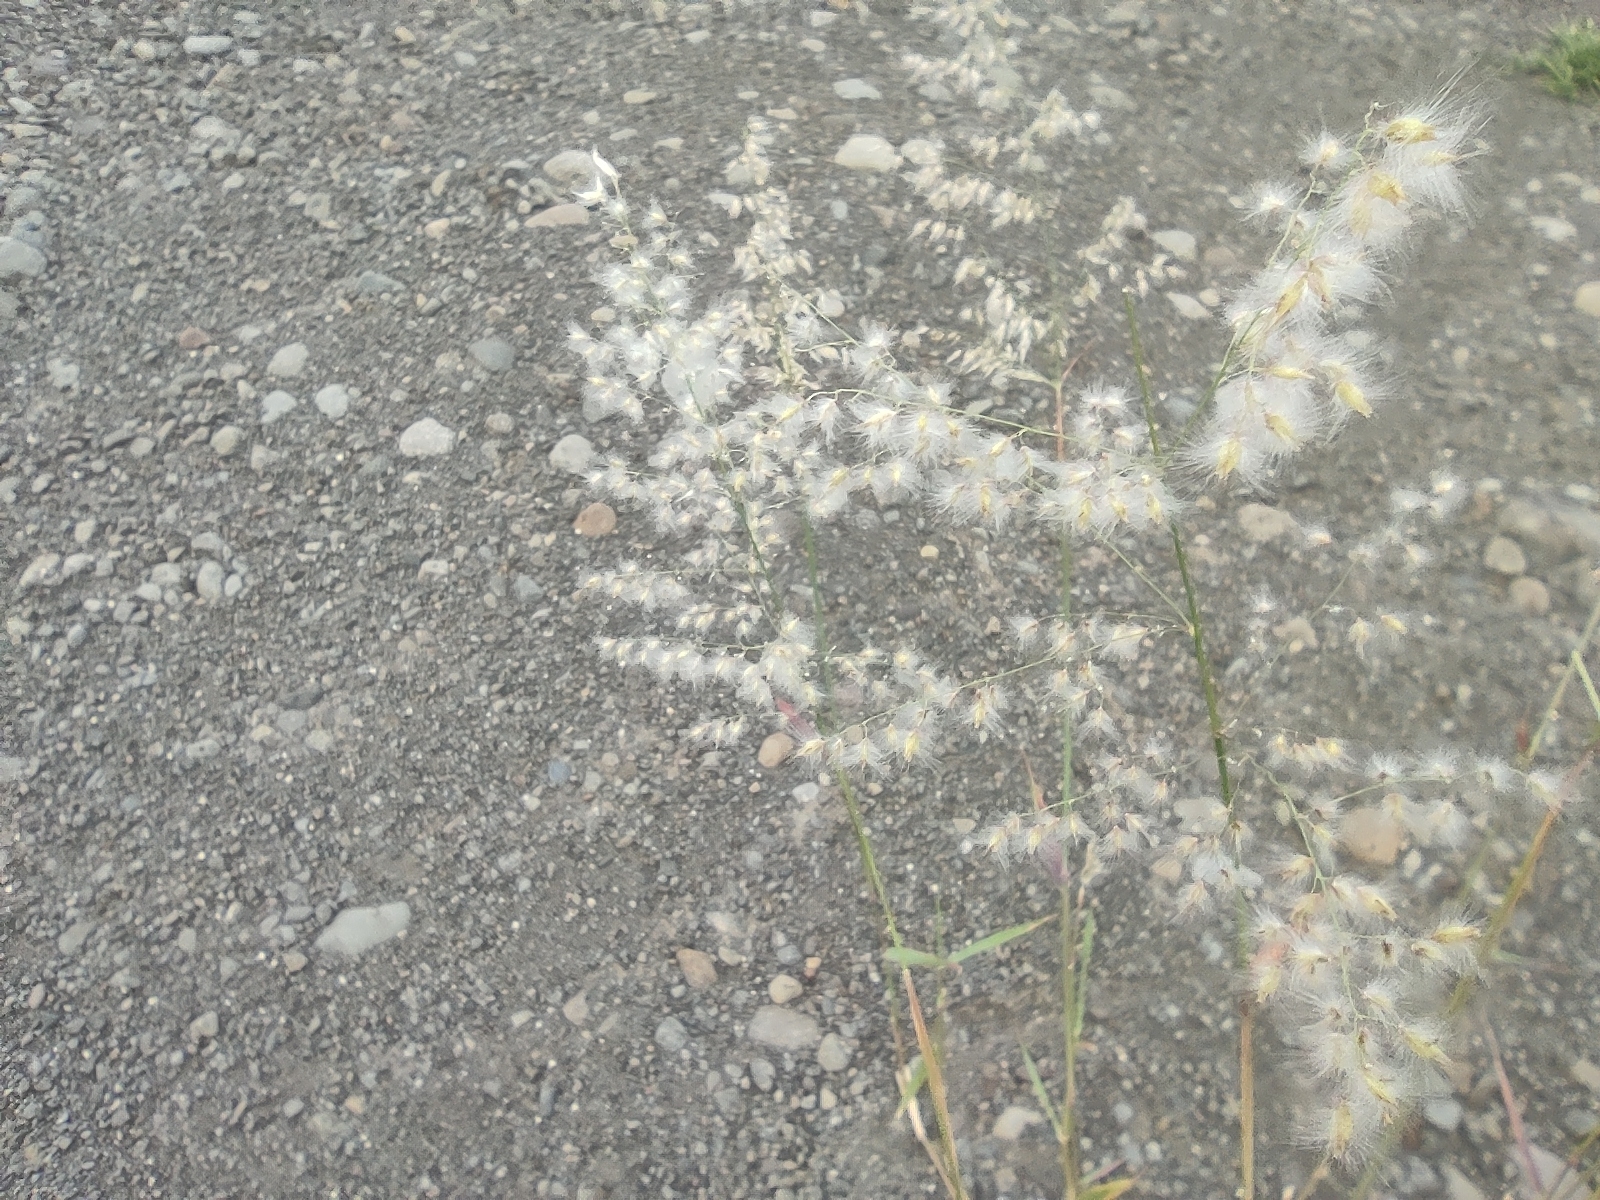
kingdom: Plantae
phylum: Tracheophyta
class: Liliopsida
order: Poales
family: Poaceae
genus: Melinis
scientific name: Melinis repens
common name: Rose natal grass
